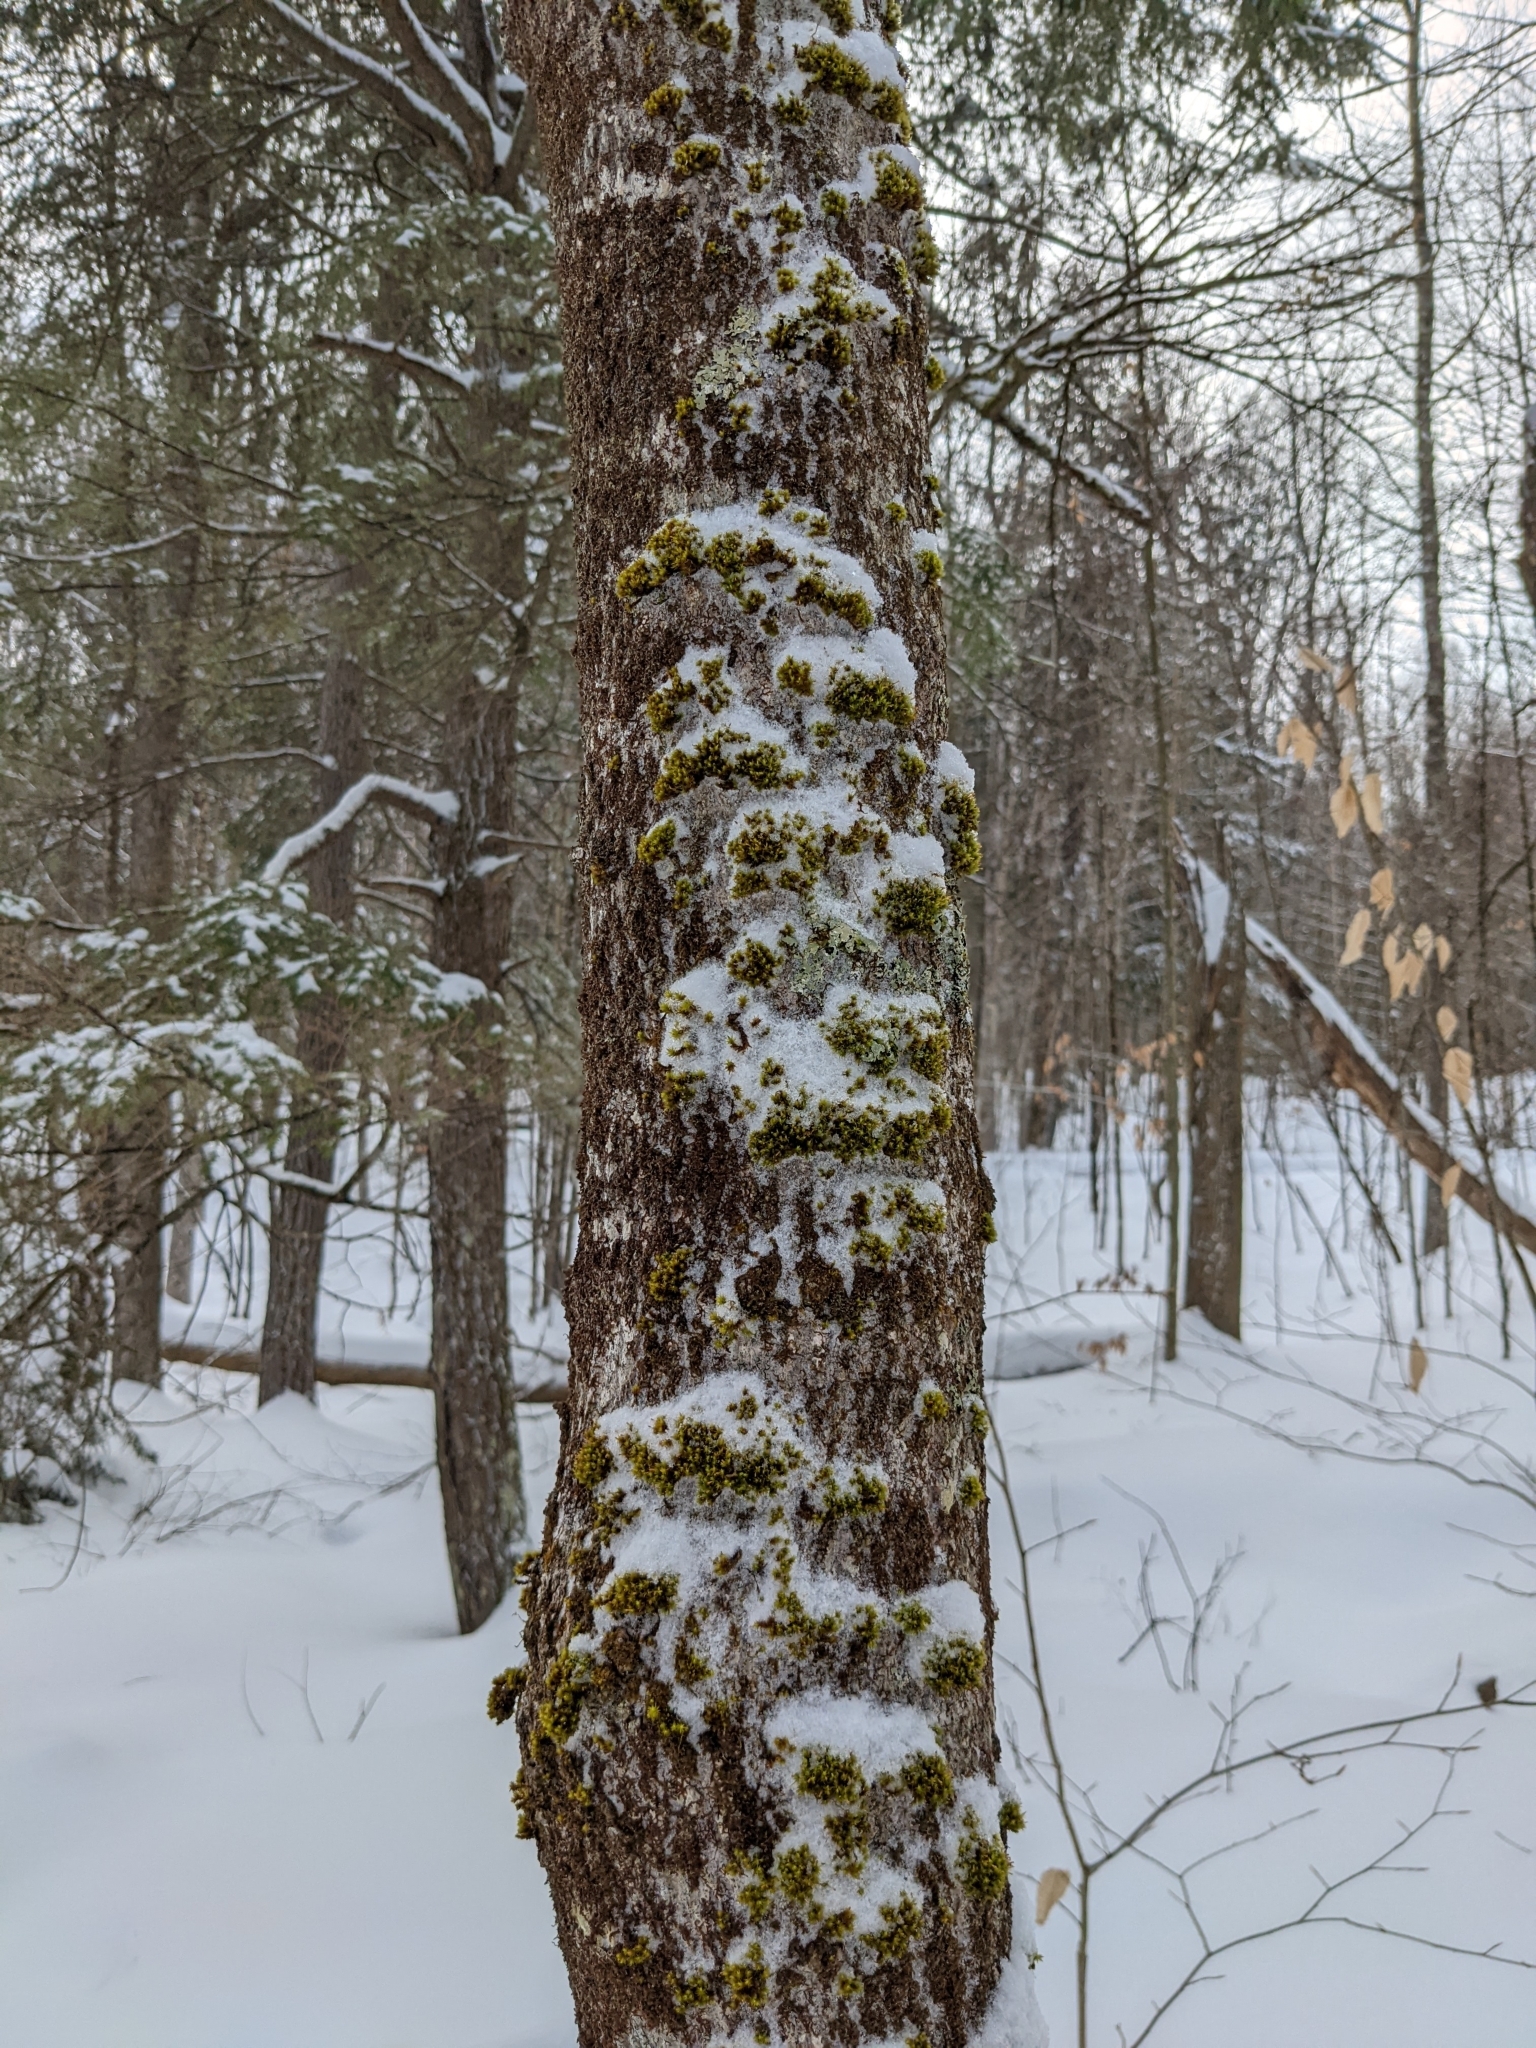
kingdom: Plantae
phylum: Bryophyta
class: Bryopsida
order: Orthotrichales
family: Orthotrichaceae
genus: Ulota
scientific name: Ulota crispa
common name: Crisped pincushion moss
